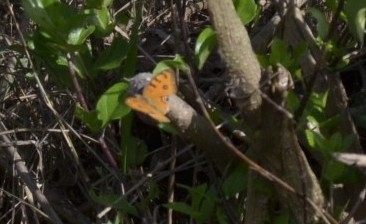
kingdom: Animalia
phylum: Arthropoda
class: Insecta
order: Lepidoptera
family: Nymphalidae
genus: Junonia
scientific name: Junonia almana
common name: Peacock pansy
